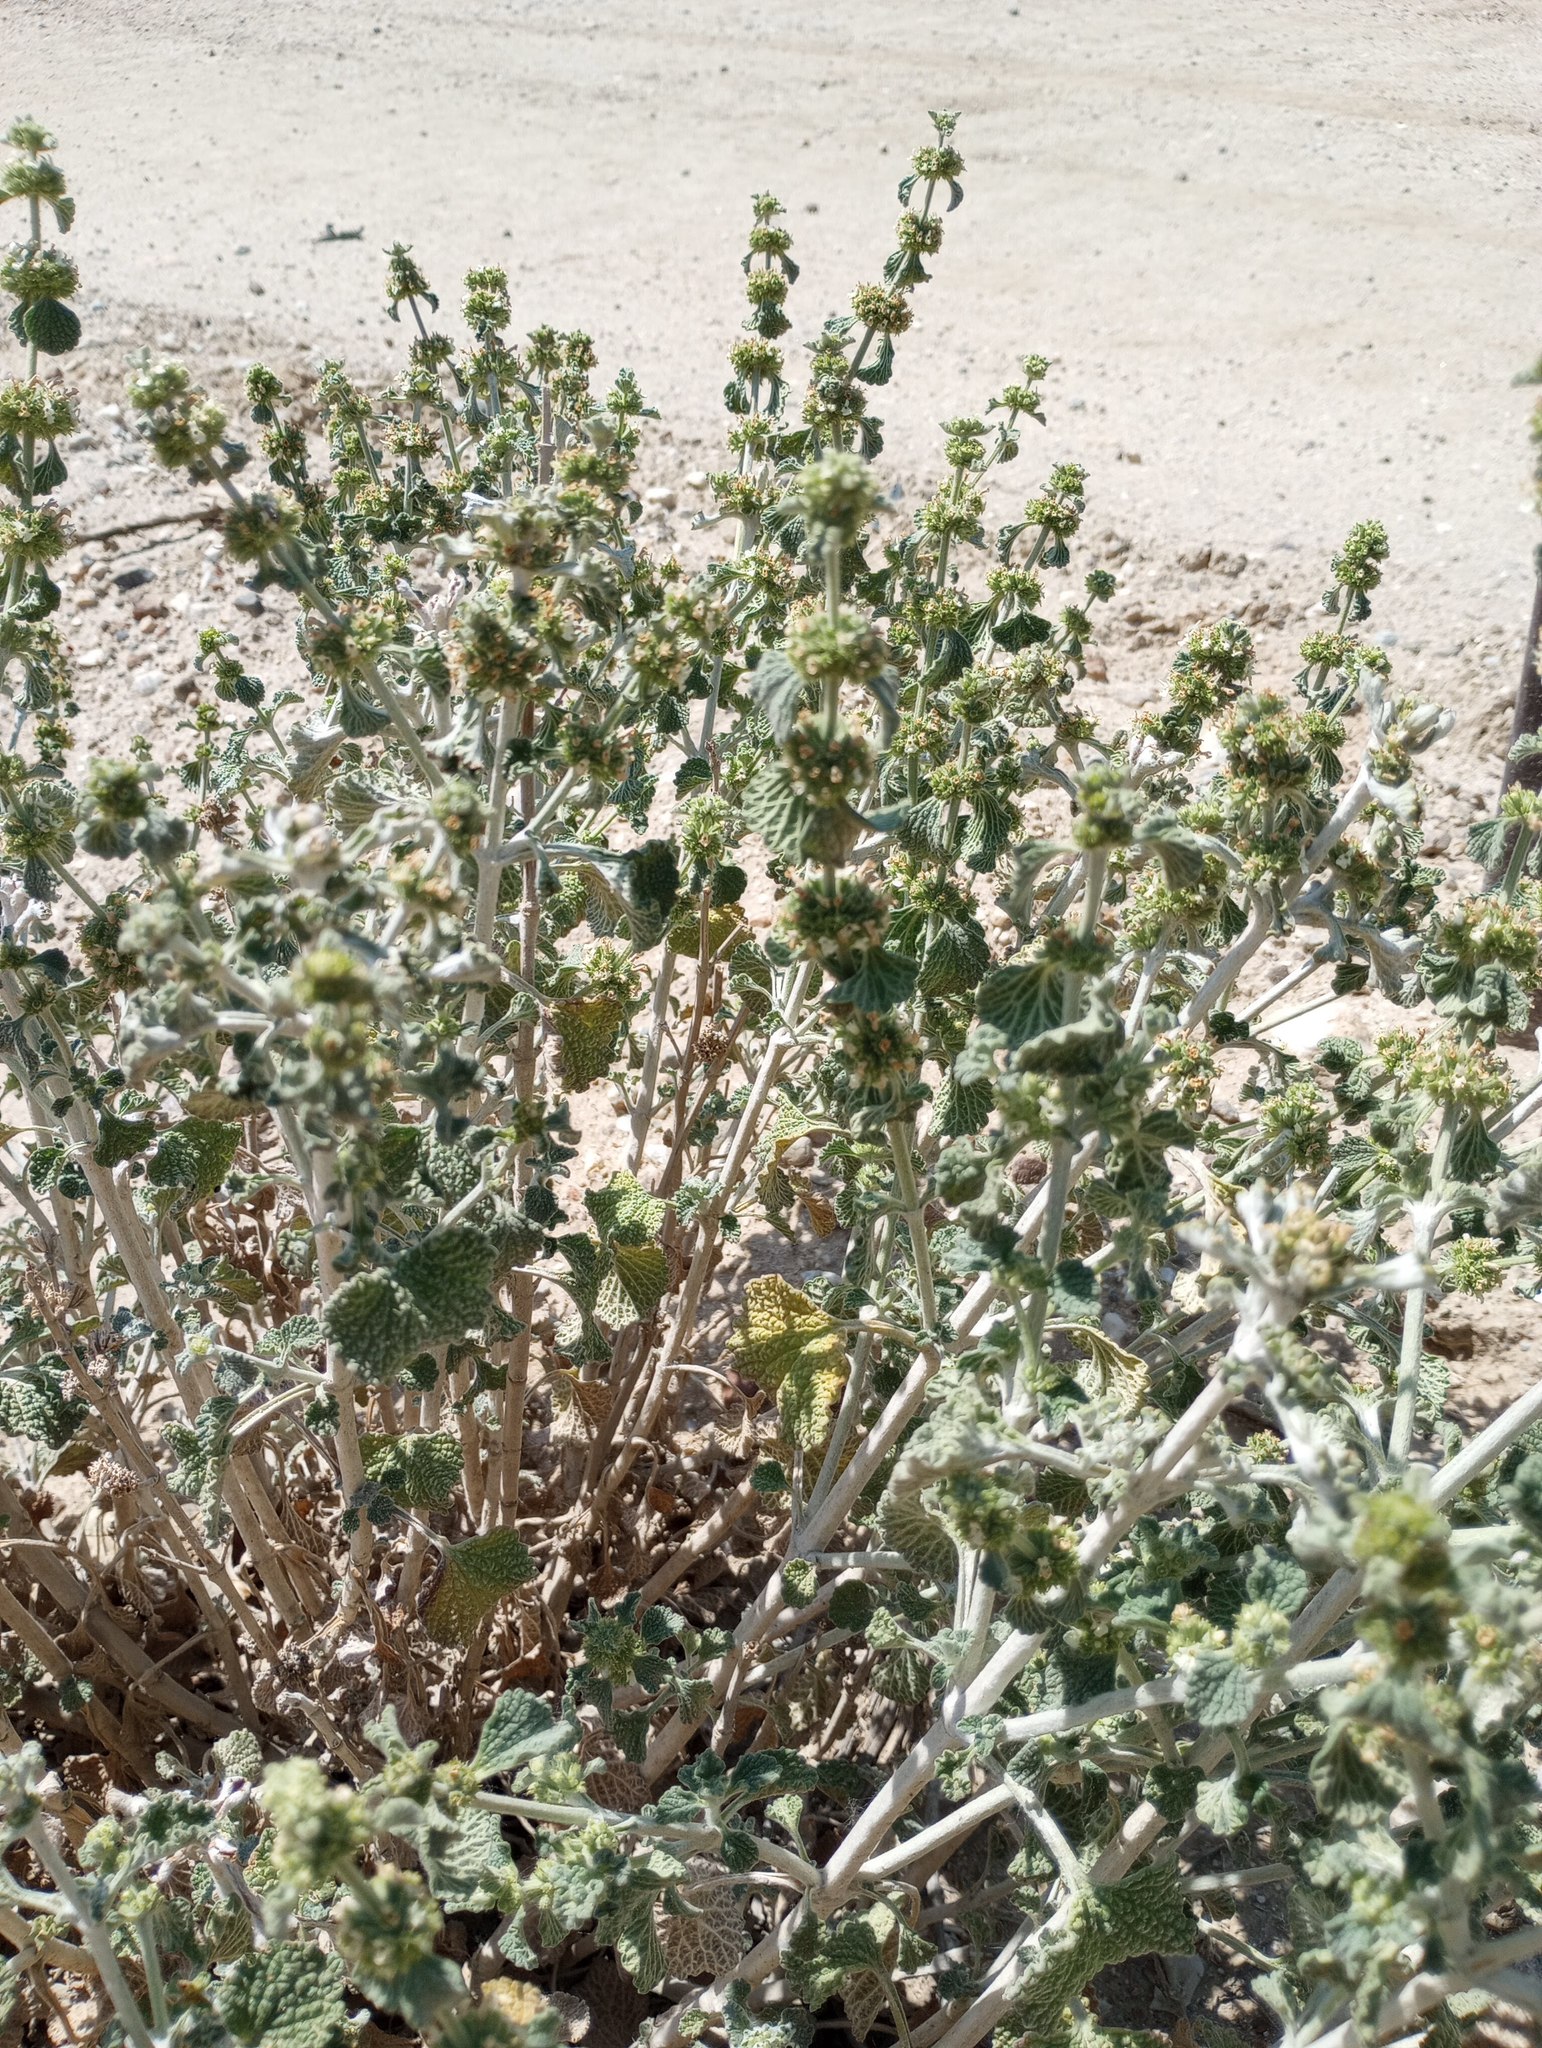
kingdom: Plantae
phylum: Tracheophyta
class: Magnoliopsida
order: Lamiales
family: Lamiaceae
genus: Marrubium
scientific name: Marrubium vulgare
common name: Horehound
